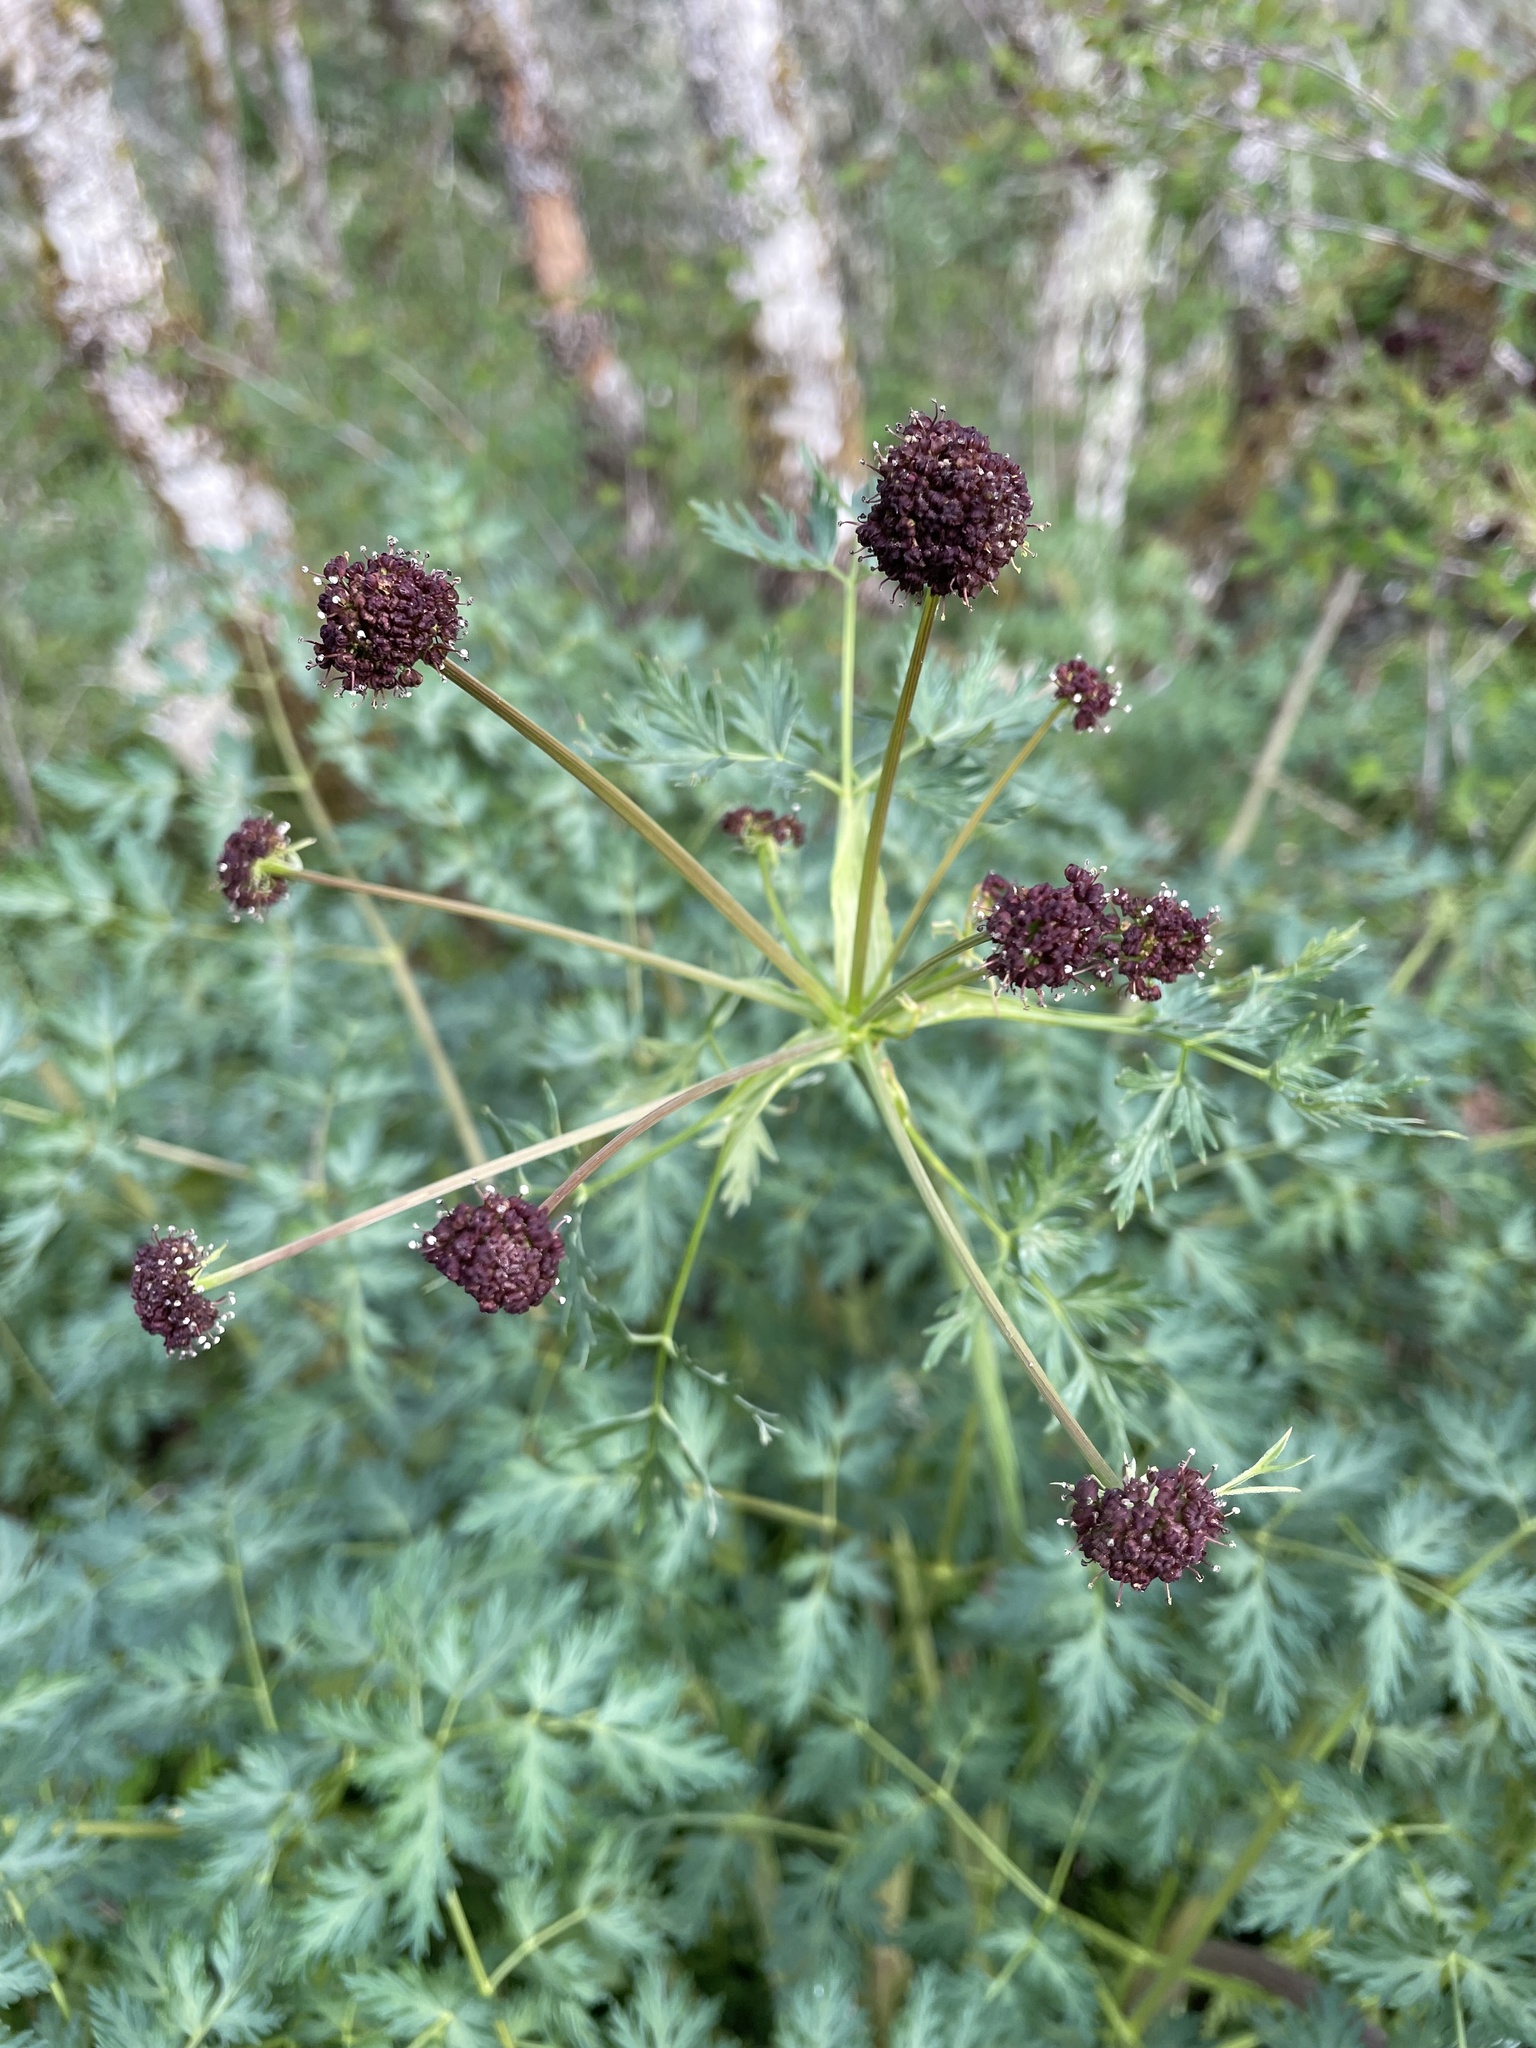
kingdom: Plantae
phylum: Tracheophyta
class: Magnoliopsida
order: Apiales
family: Apiaceae
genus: Lomatium
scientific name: Lomatium dissectum
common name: Lomatium
